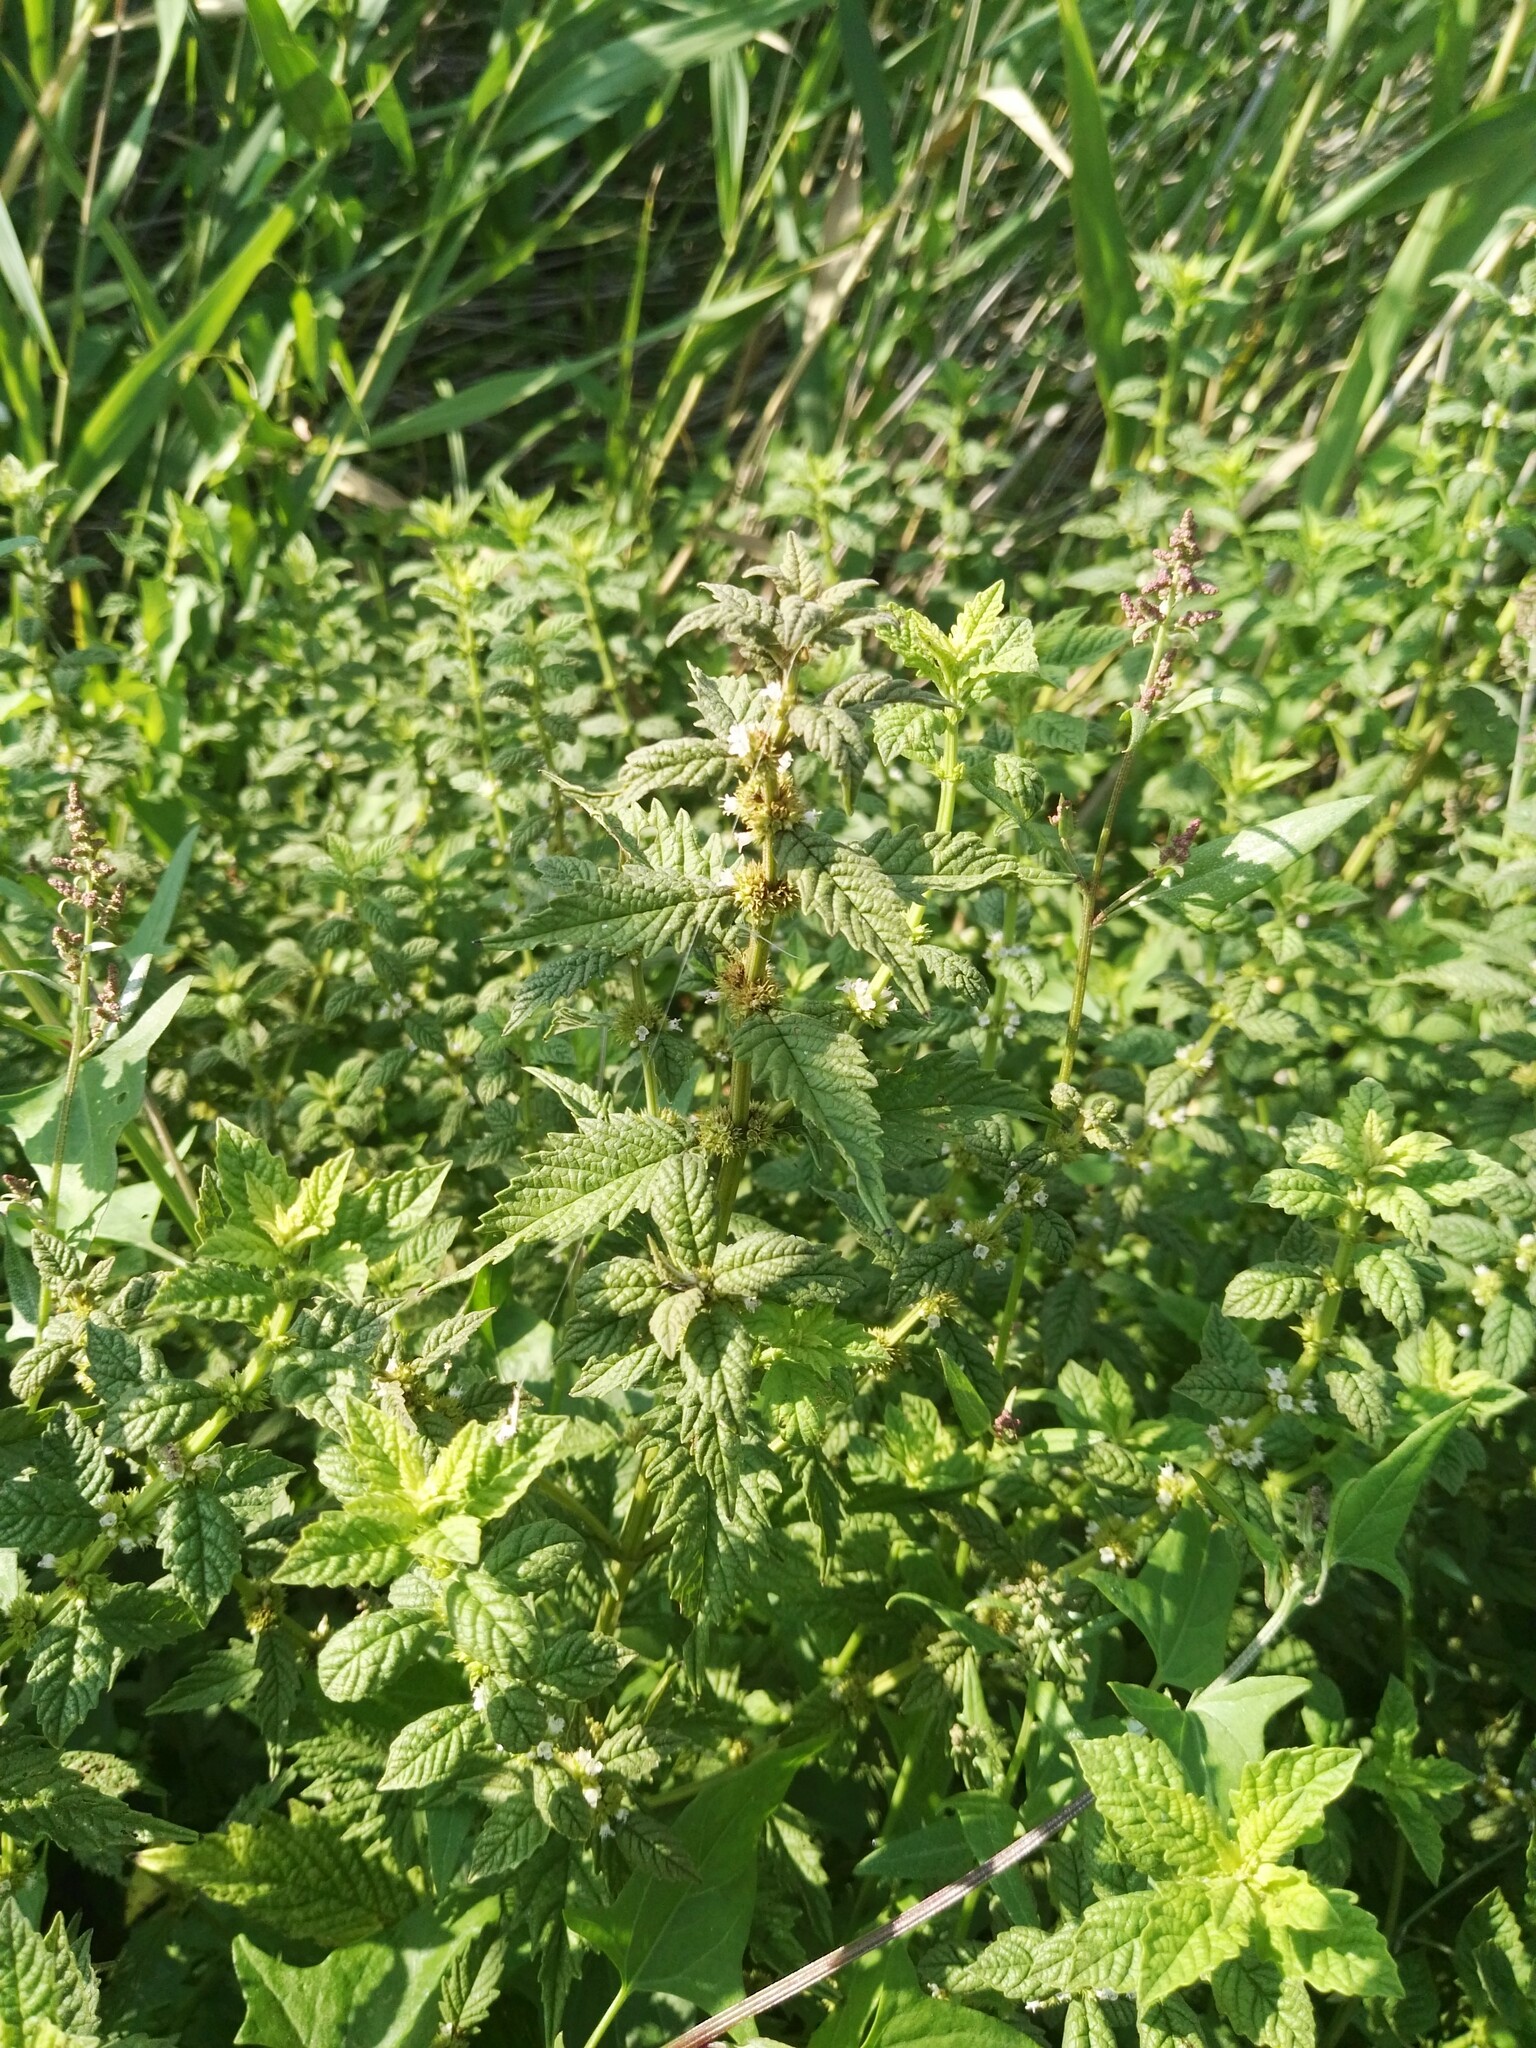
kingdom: Plantae
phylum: Tracheophyta
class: Magnoliopsida
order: Lamiales
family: Lamiaceae
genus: Lycopus
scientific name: Lycopus europaeus
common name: European bugleweed
